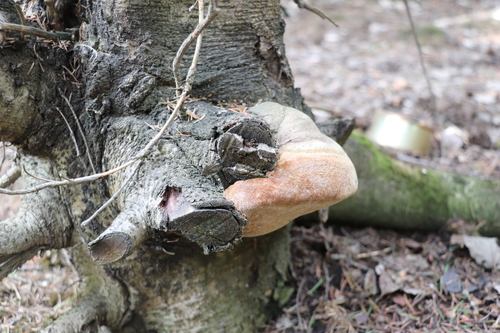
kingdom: Fungi
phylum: Basidiomycota
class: Agaricomycetes
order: Hymenochaetales
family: Hymenochaetaceae
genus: Phellinus
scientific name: Phellinus hartigii
